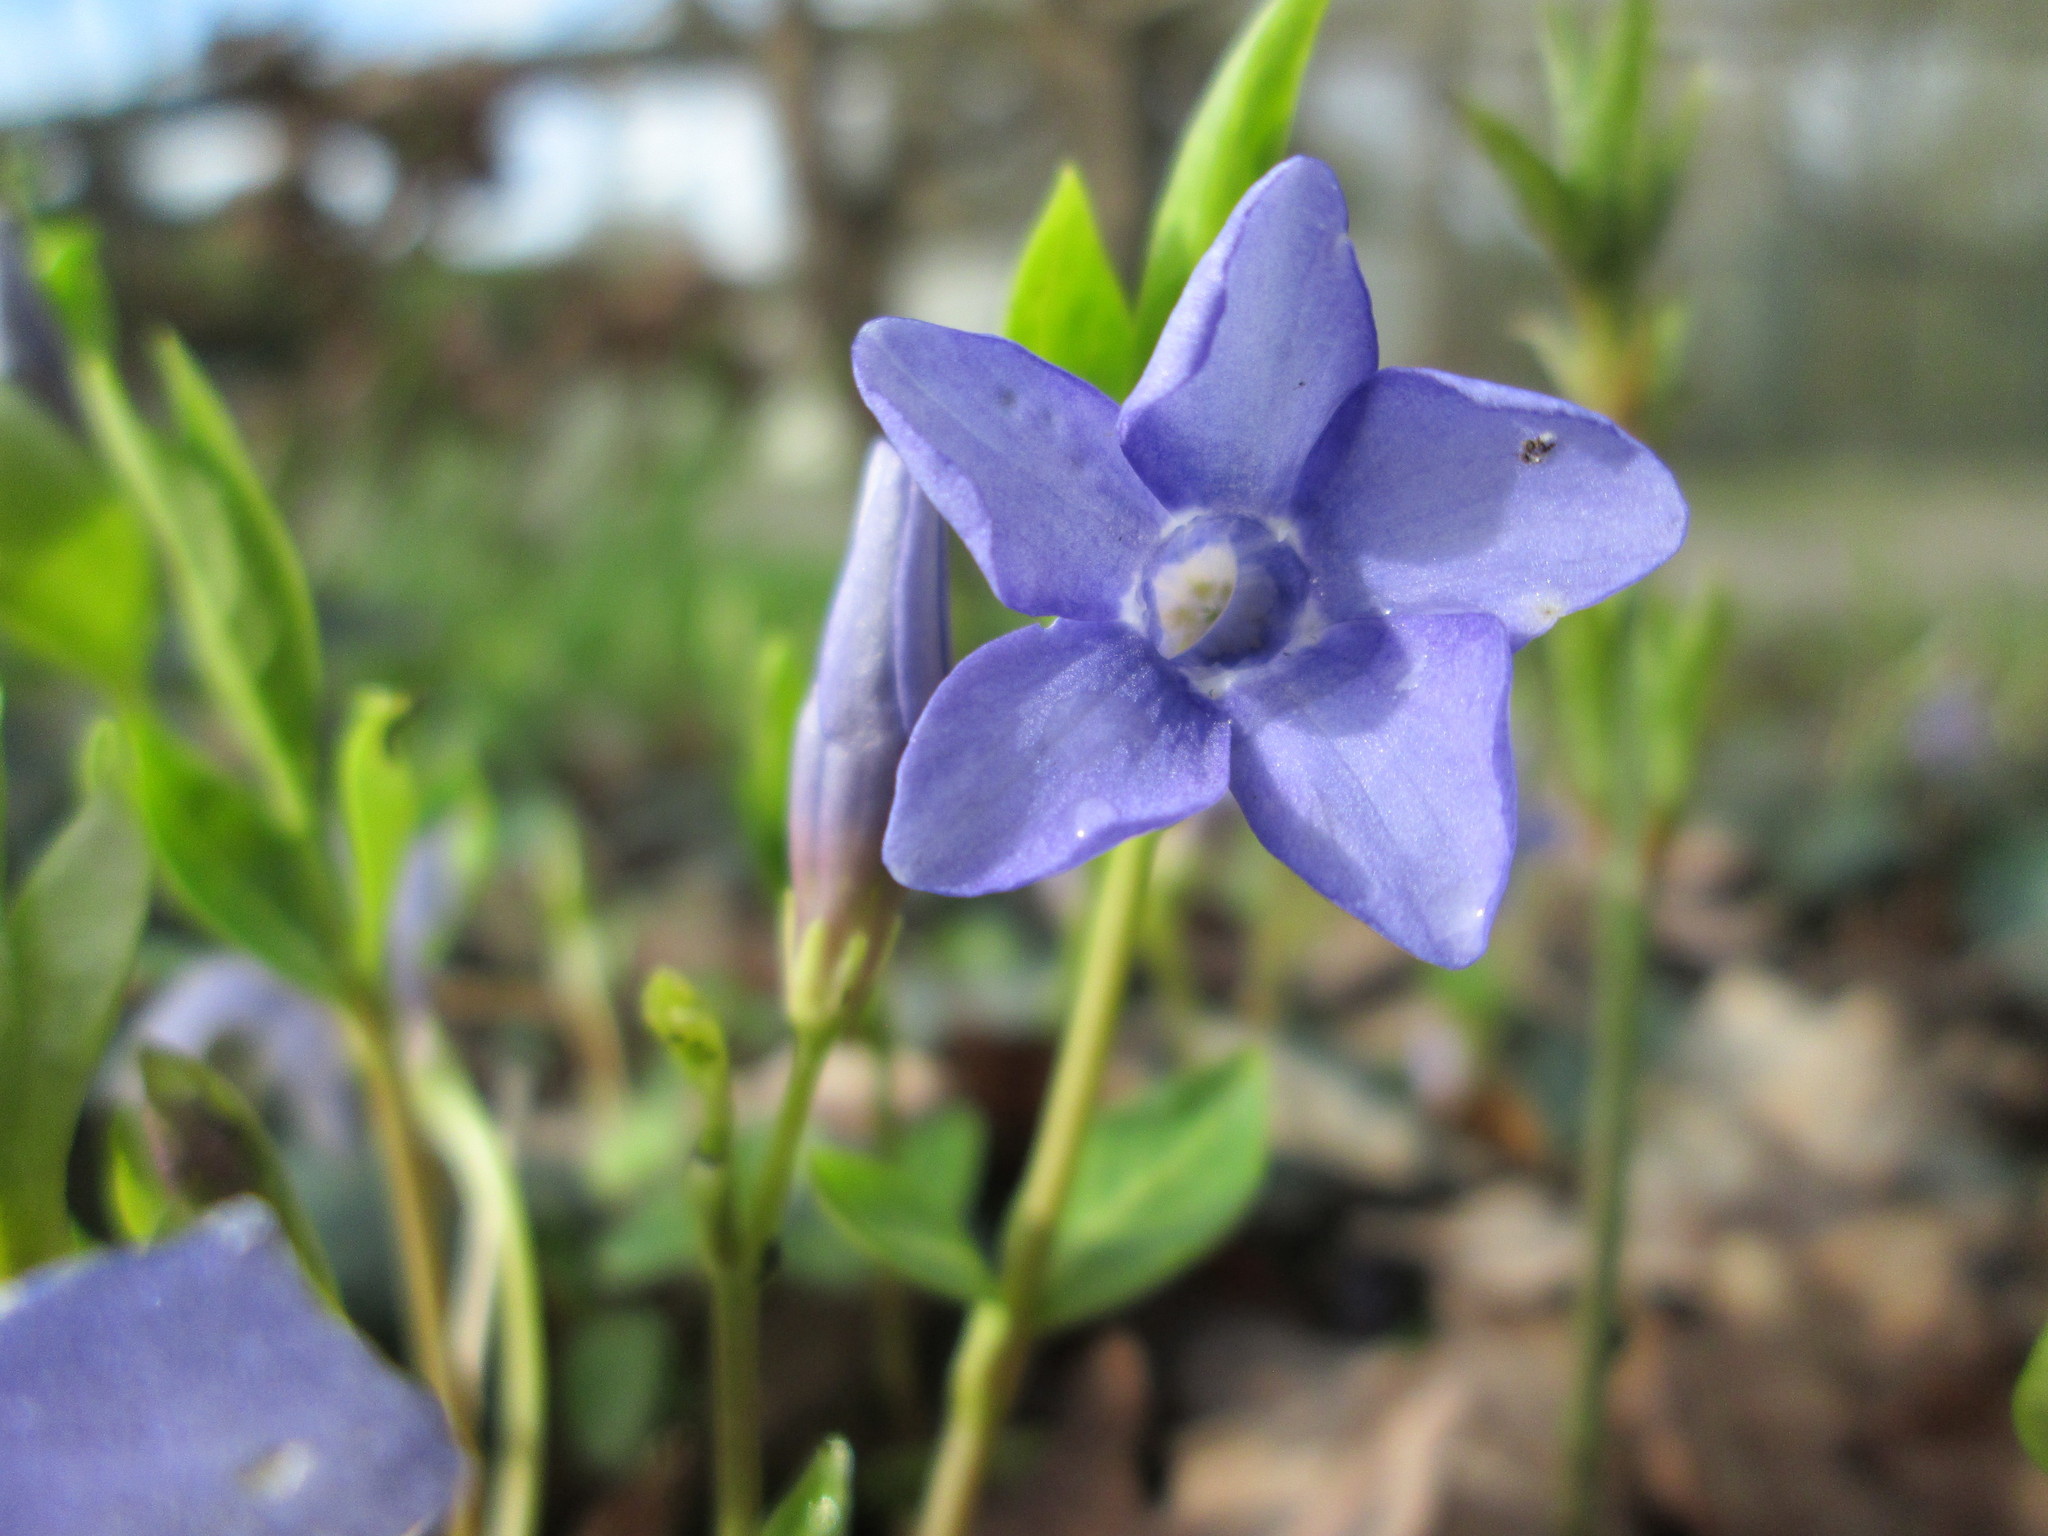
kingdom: Plantae
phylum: Tracheophyta
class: Magnoliopsida
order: Gentianales
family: Apocynaceae
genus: Vinca
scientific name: Vinca minor
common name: Lesser periwinkle
